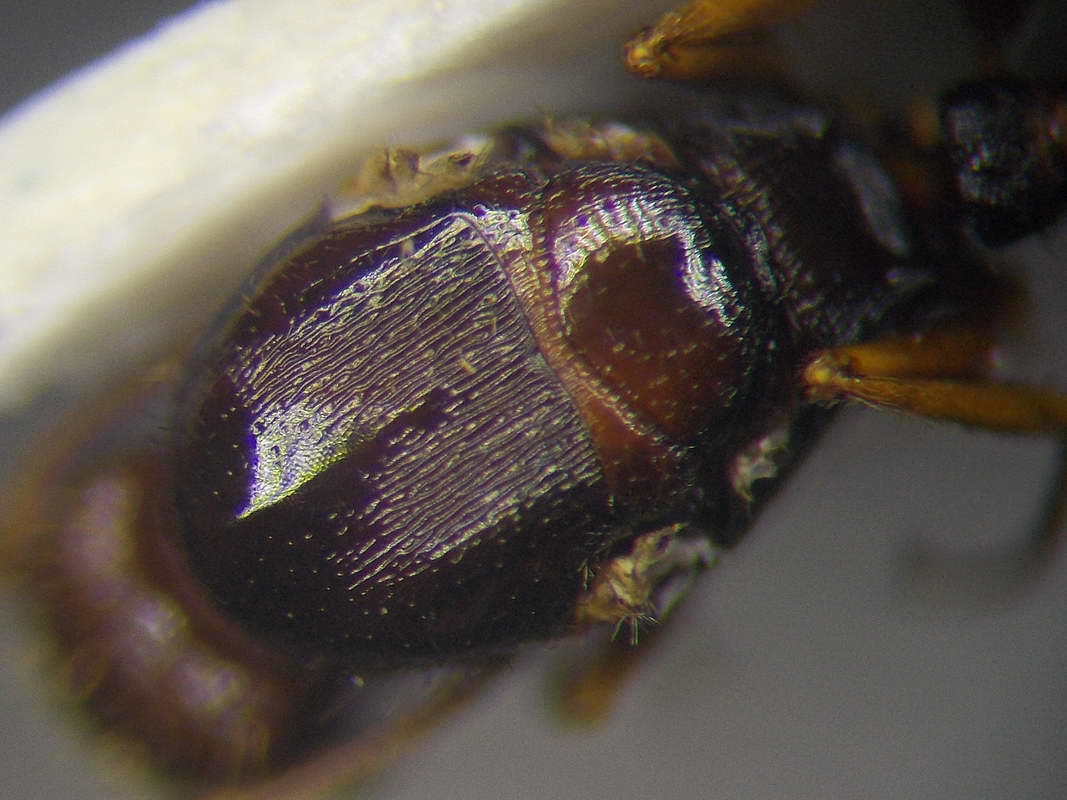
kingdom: Animalia
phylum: Arthropoda
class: Insecta
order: Hymenoptera
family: Formicidae
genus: Tetramorium
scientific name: Tetramorium caespitum
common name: Pavement ant
